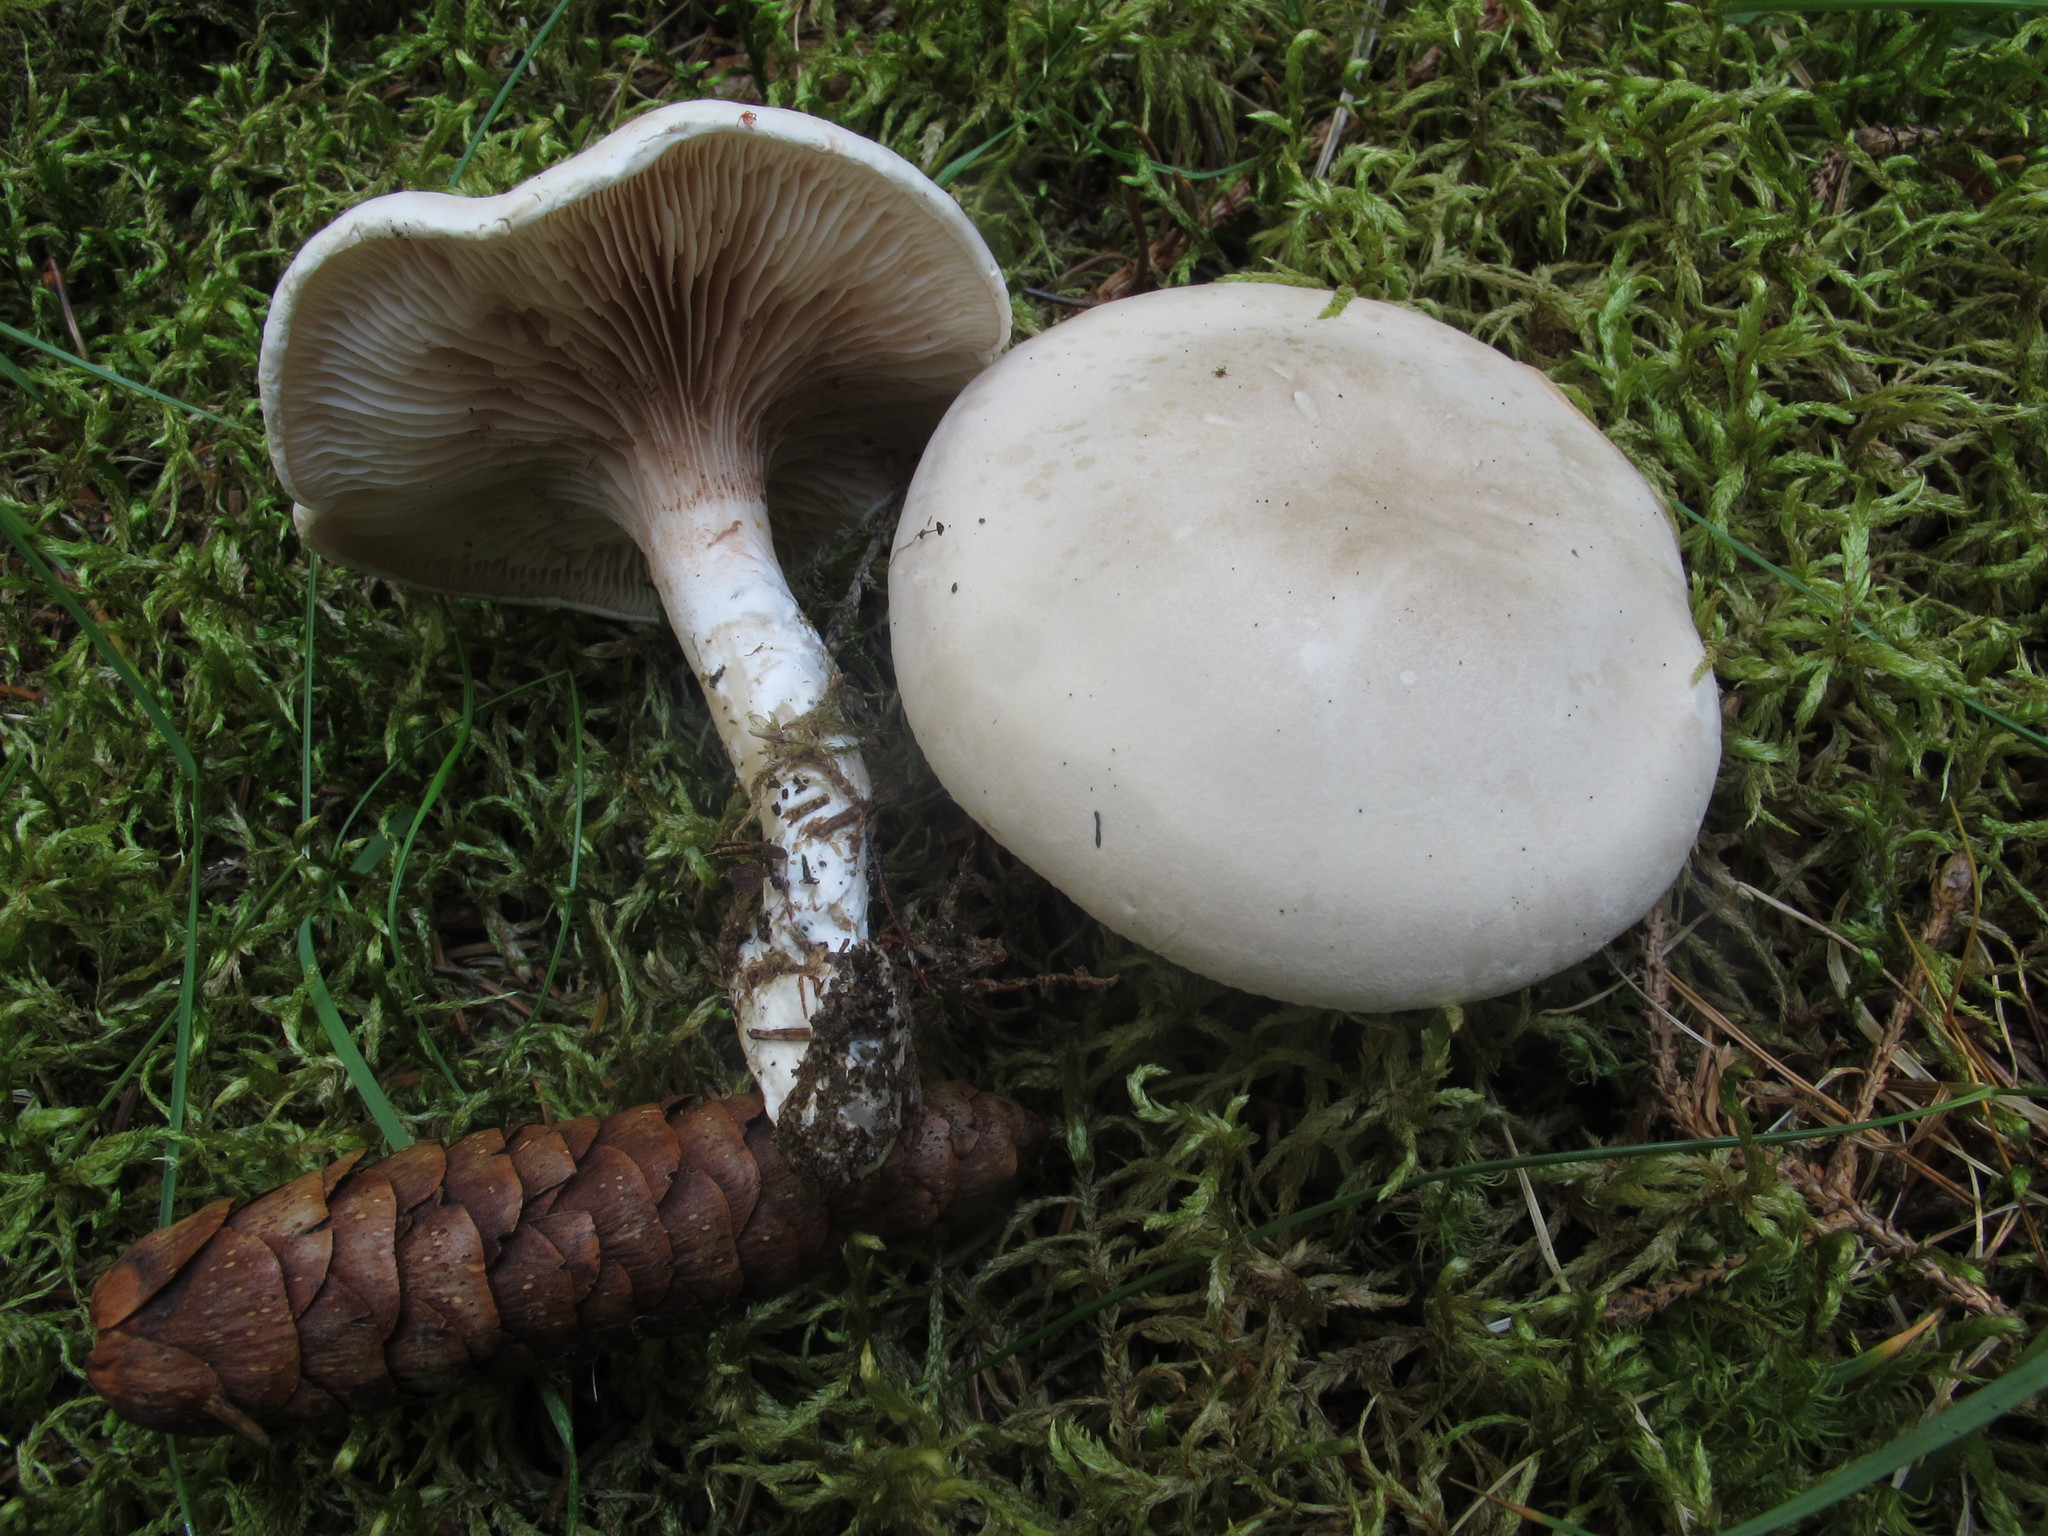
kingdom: Fungi
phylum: Basidiomycota
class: Agaricomycetes
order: Agaricales
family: Entolomataceae
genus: Clitopilus
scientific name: Clitopilus prunulus
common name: The miller
